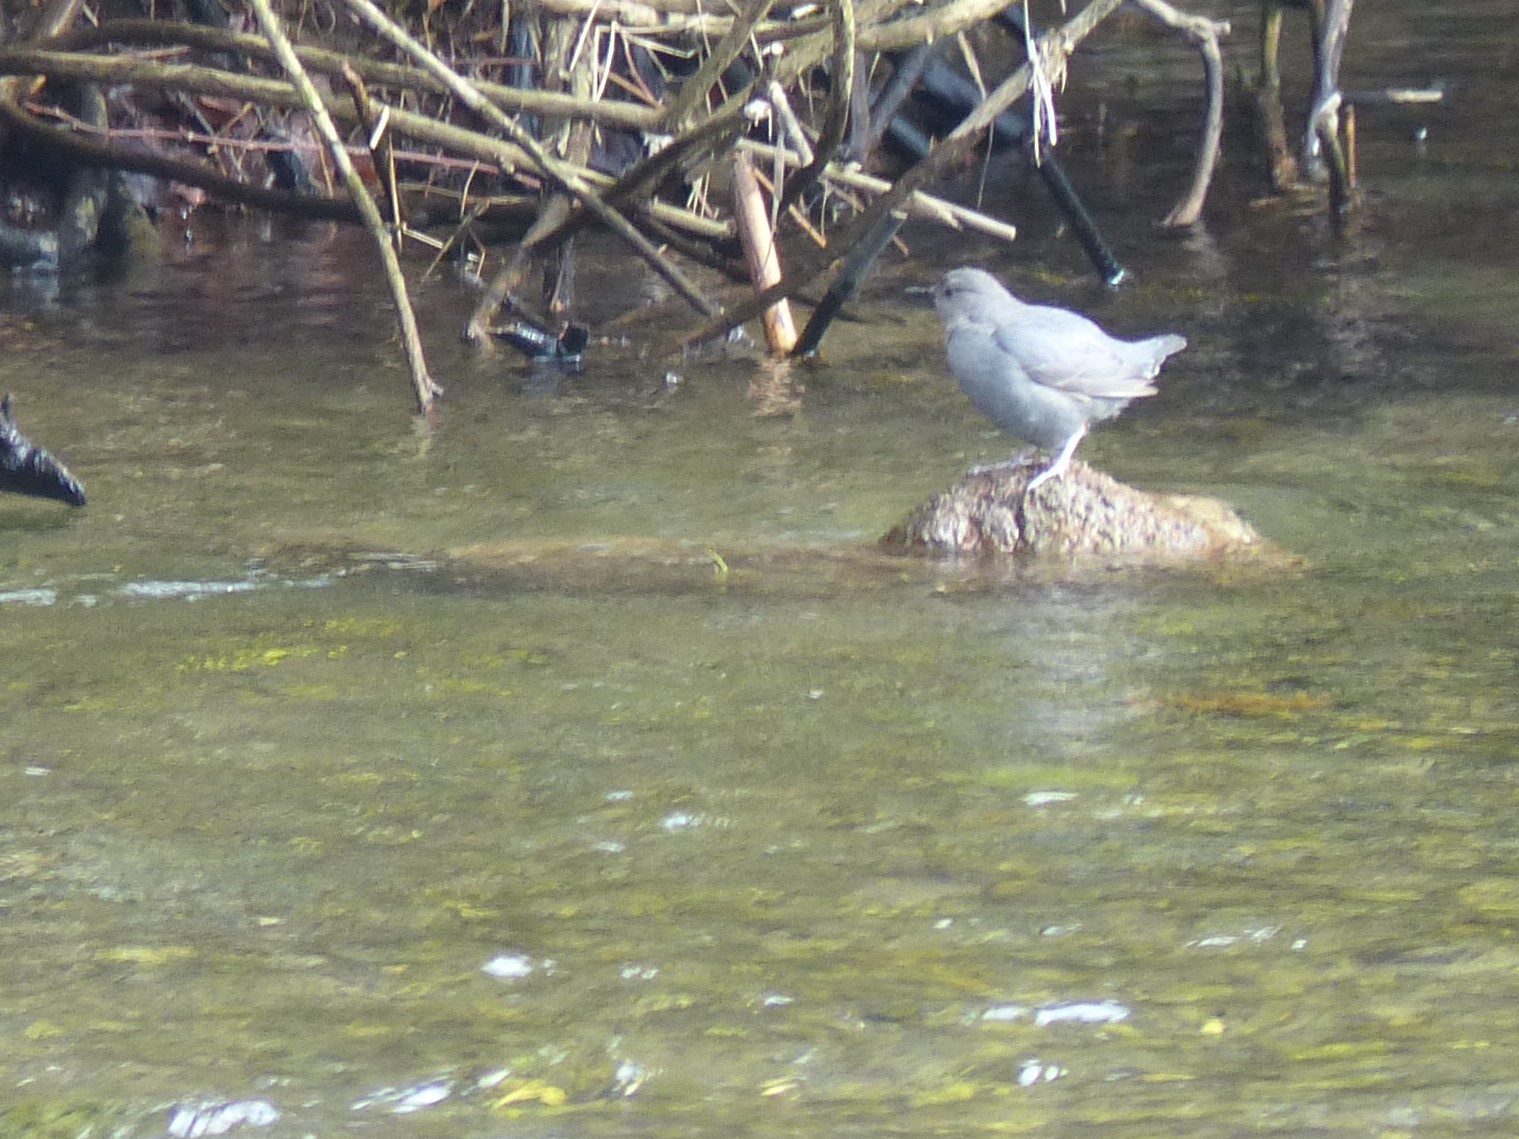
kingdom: Animalia
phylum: Chordata
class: Aves
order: Passeriformes
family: Cinclidae
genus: Cinclus
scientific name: Cinclus mexicanus
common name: American dipper
